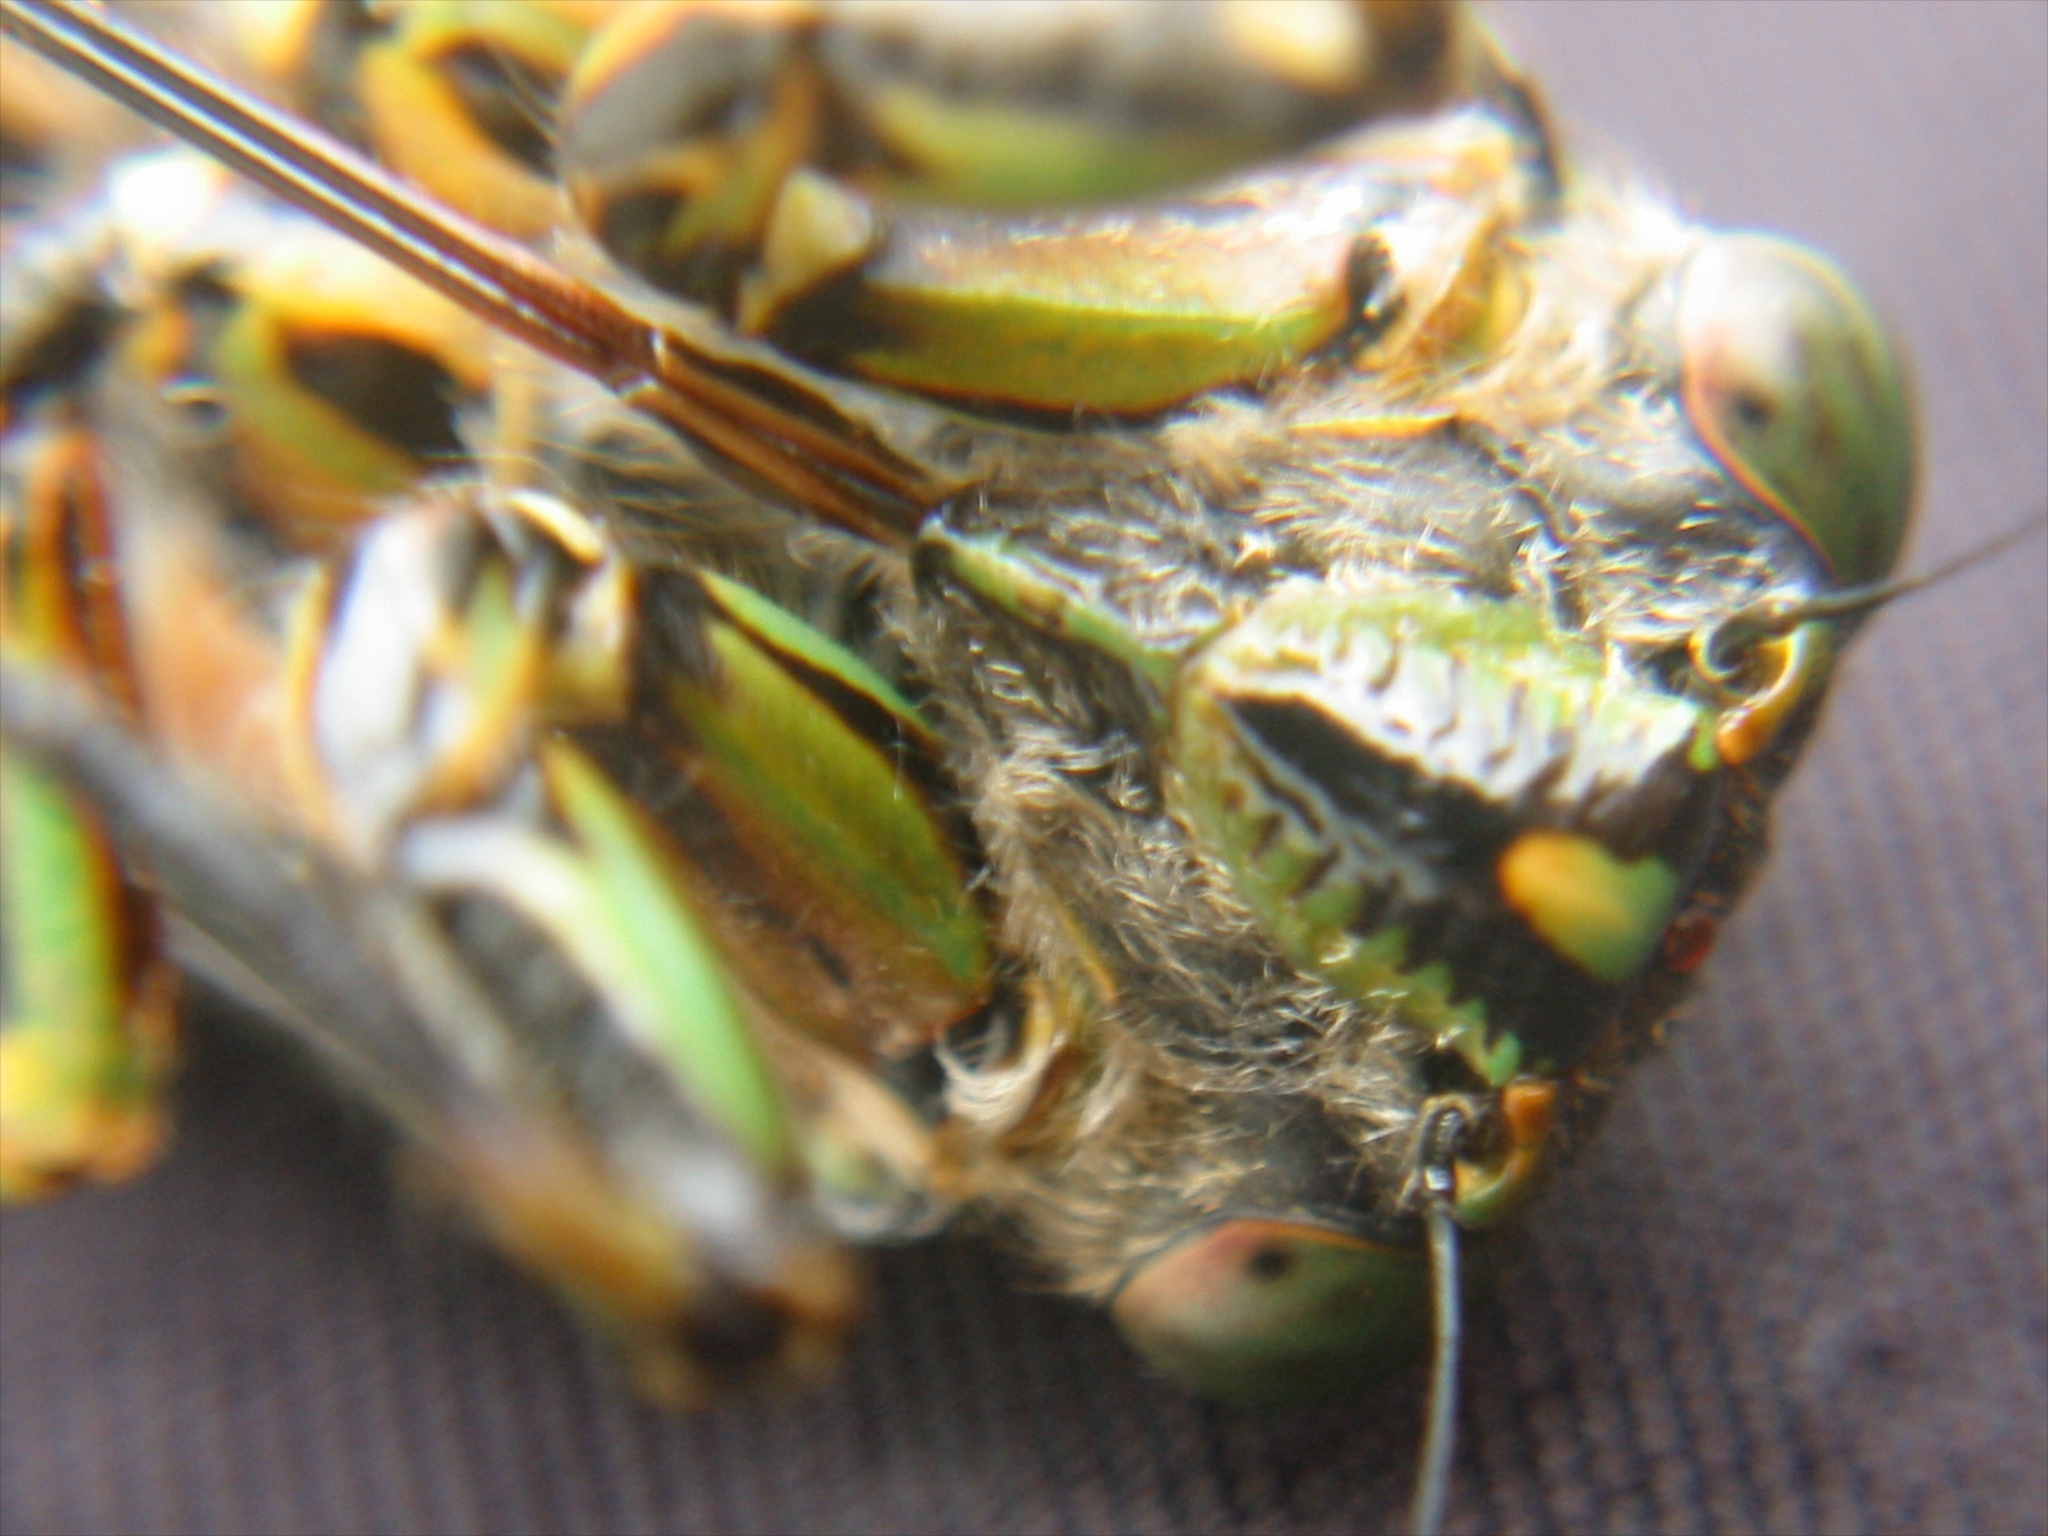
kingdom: Animalia
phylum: Arthropoda
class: Insecta
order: Hemiptera
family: Cicadidae
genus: Amphipsalta
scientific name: Amphipsalta zelandica
